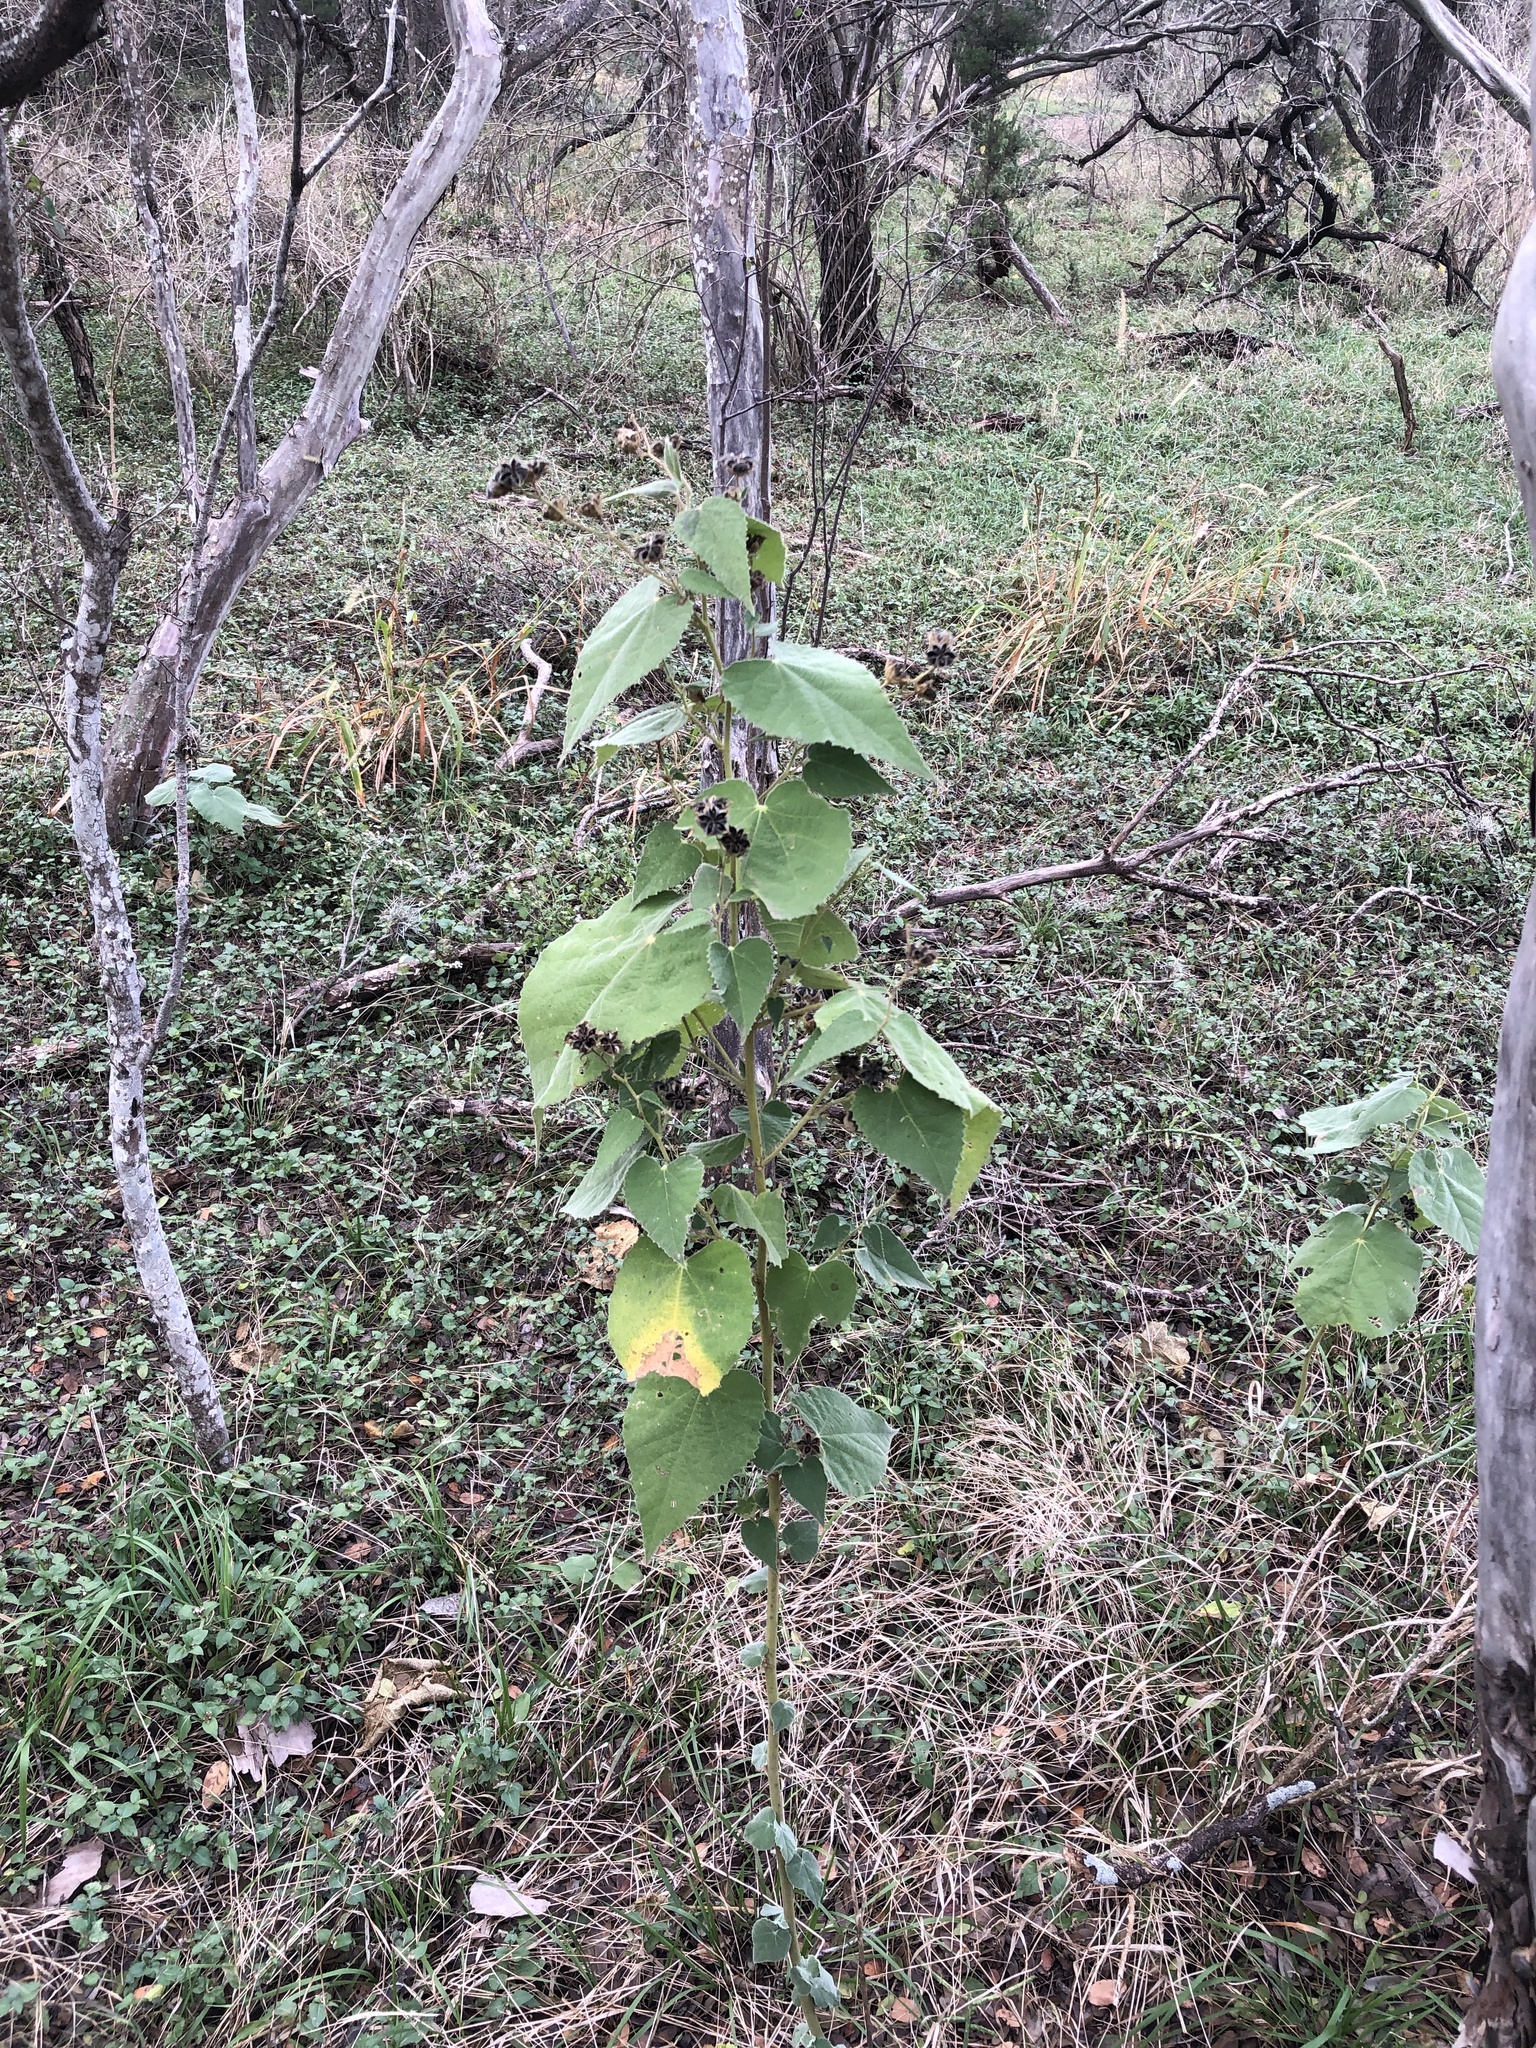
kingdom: Plantae
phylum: Tracheophyta
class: Magnoliopsida
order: Malvales
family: Malvaceae
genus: Allowissadula
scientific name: Allowissadula holosericea
